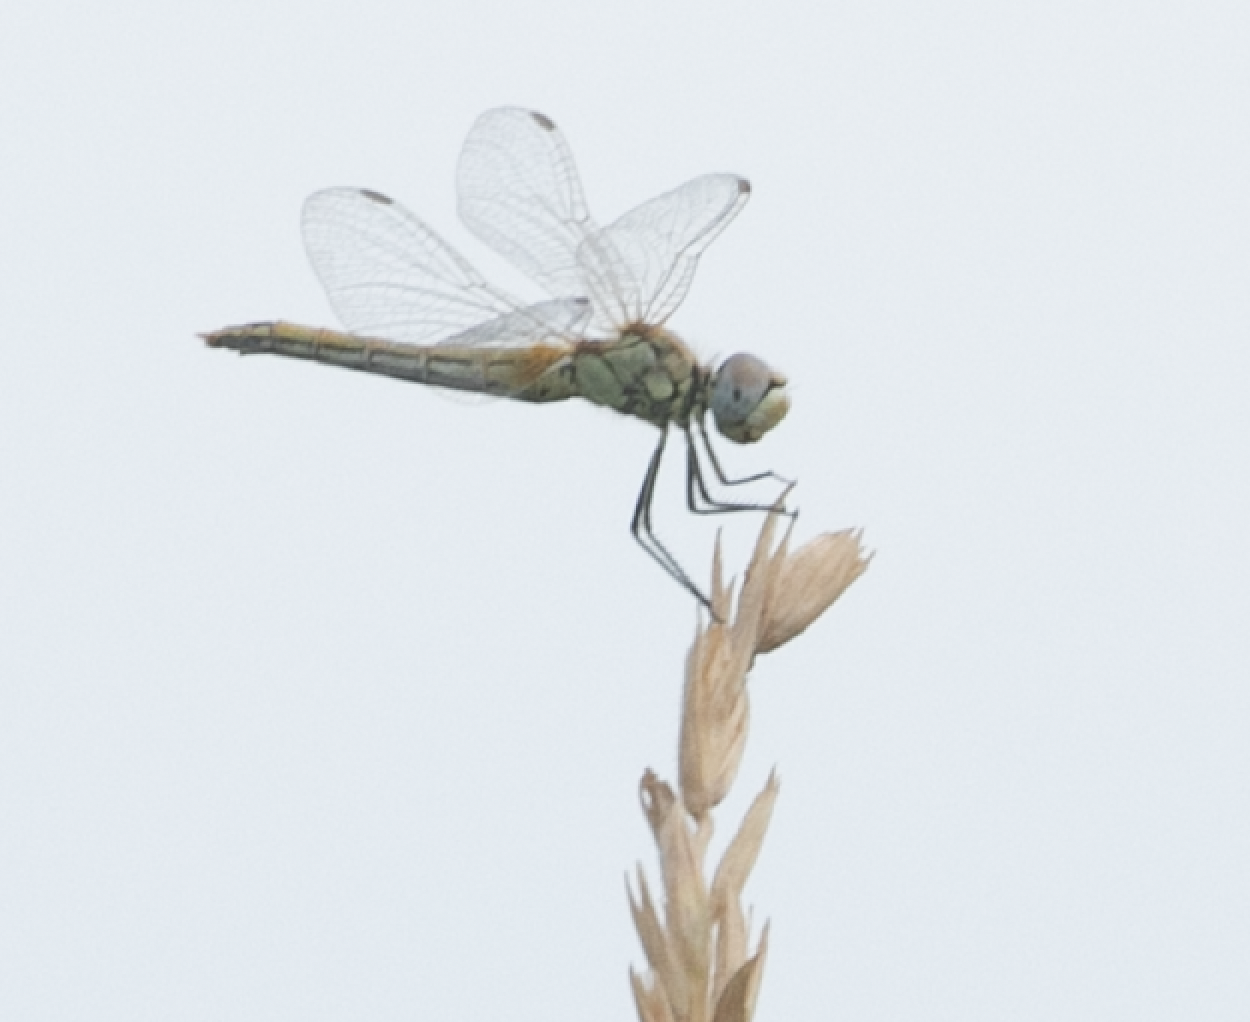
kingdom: Animalia
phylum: Arthropoda
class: Insecta
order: Odonata
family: Libellulidae
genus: Sympetrum
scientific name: Sympetrum fonscolombii
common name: Red-veined darter
